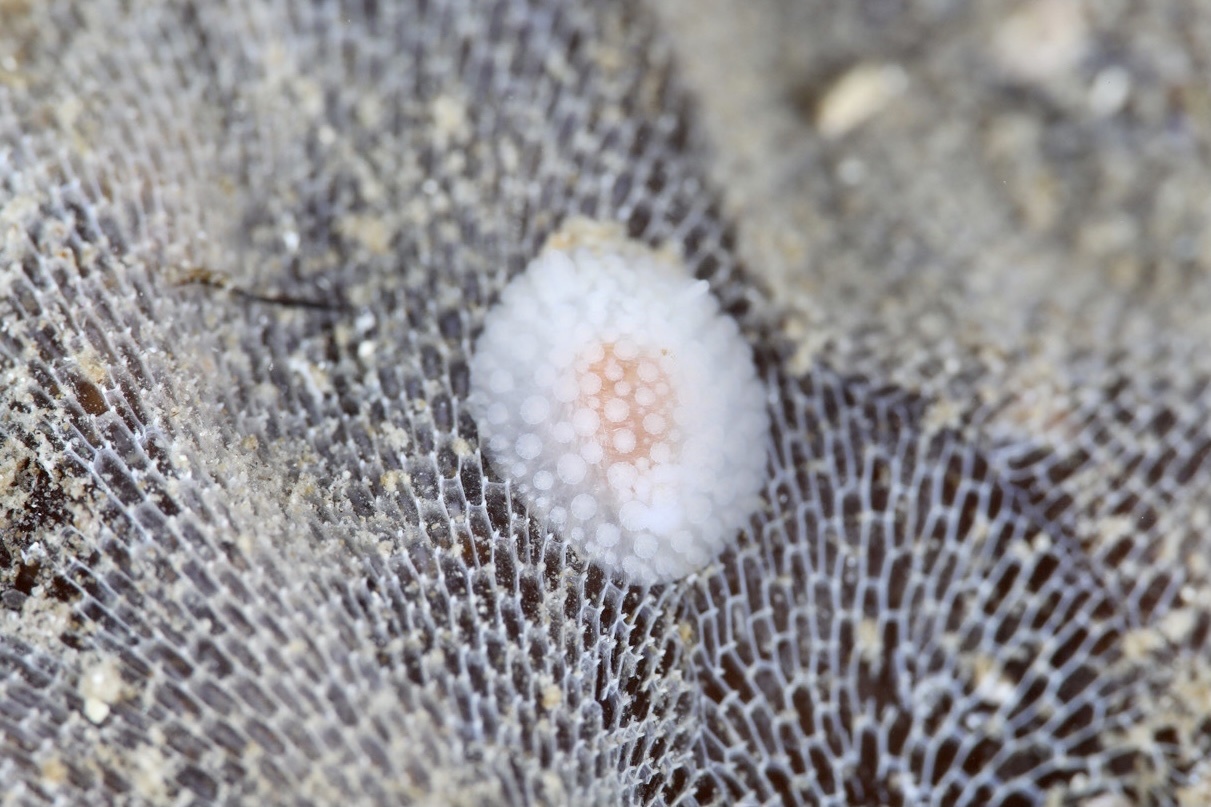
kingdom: Animalia
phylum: Mollusca
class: Gastropoda
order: Nudibranchia
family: Onchidorididae
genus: Onchidoris
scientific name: Onchidoris muricata
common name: Rough doris
